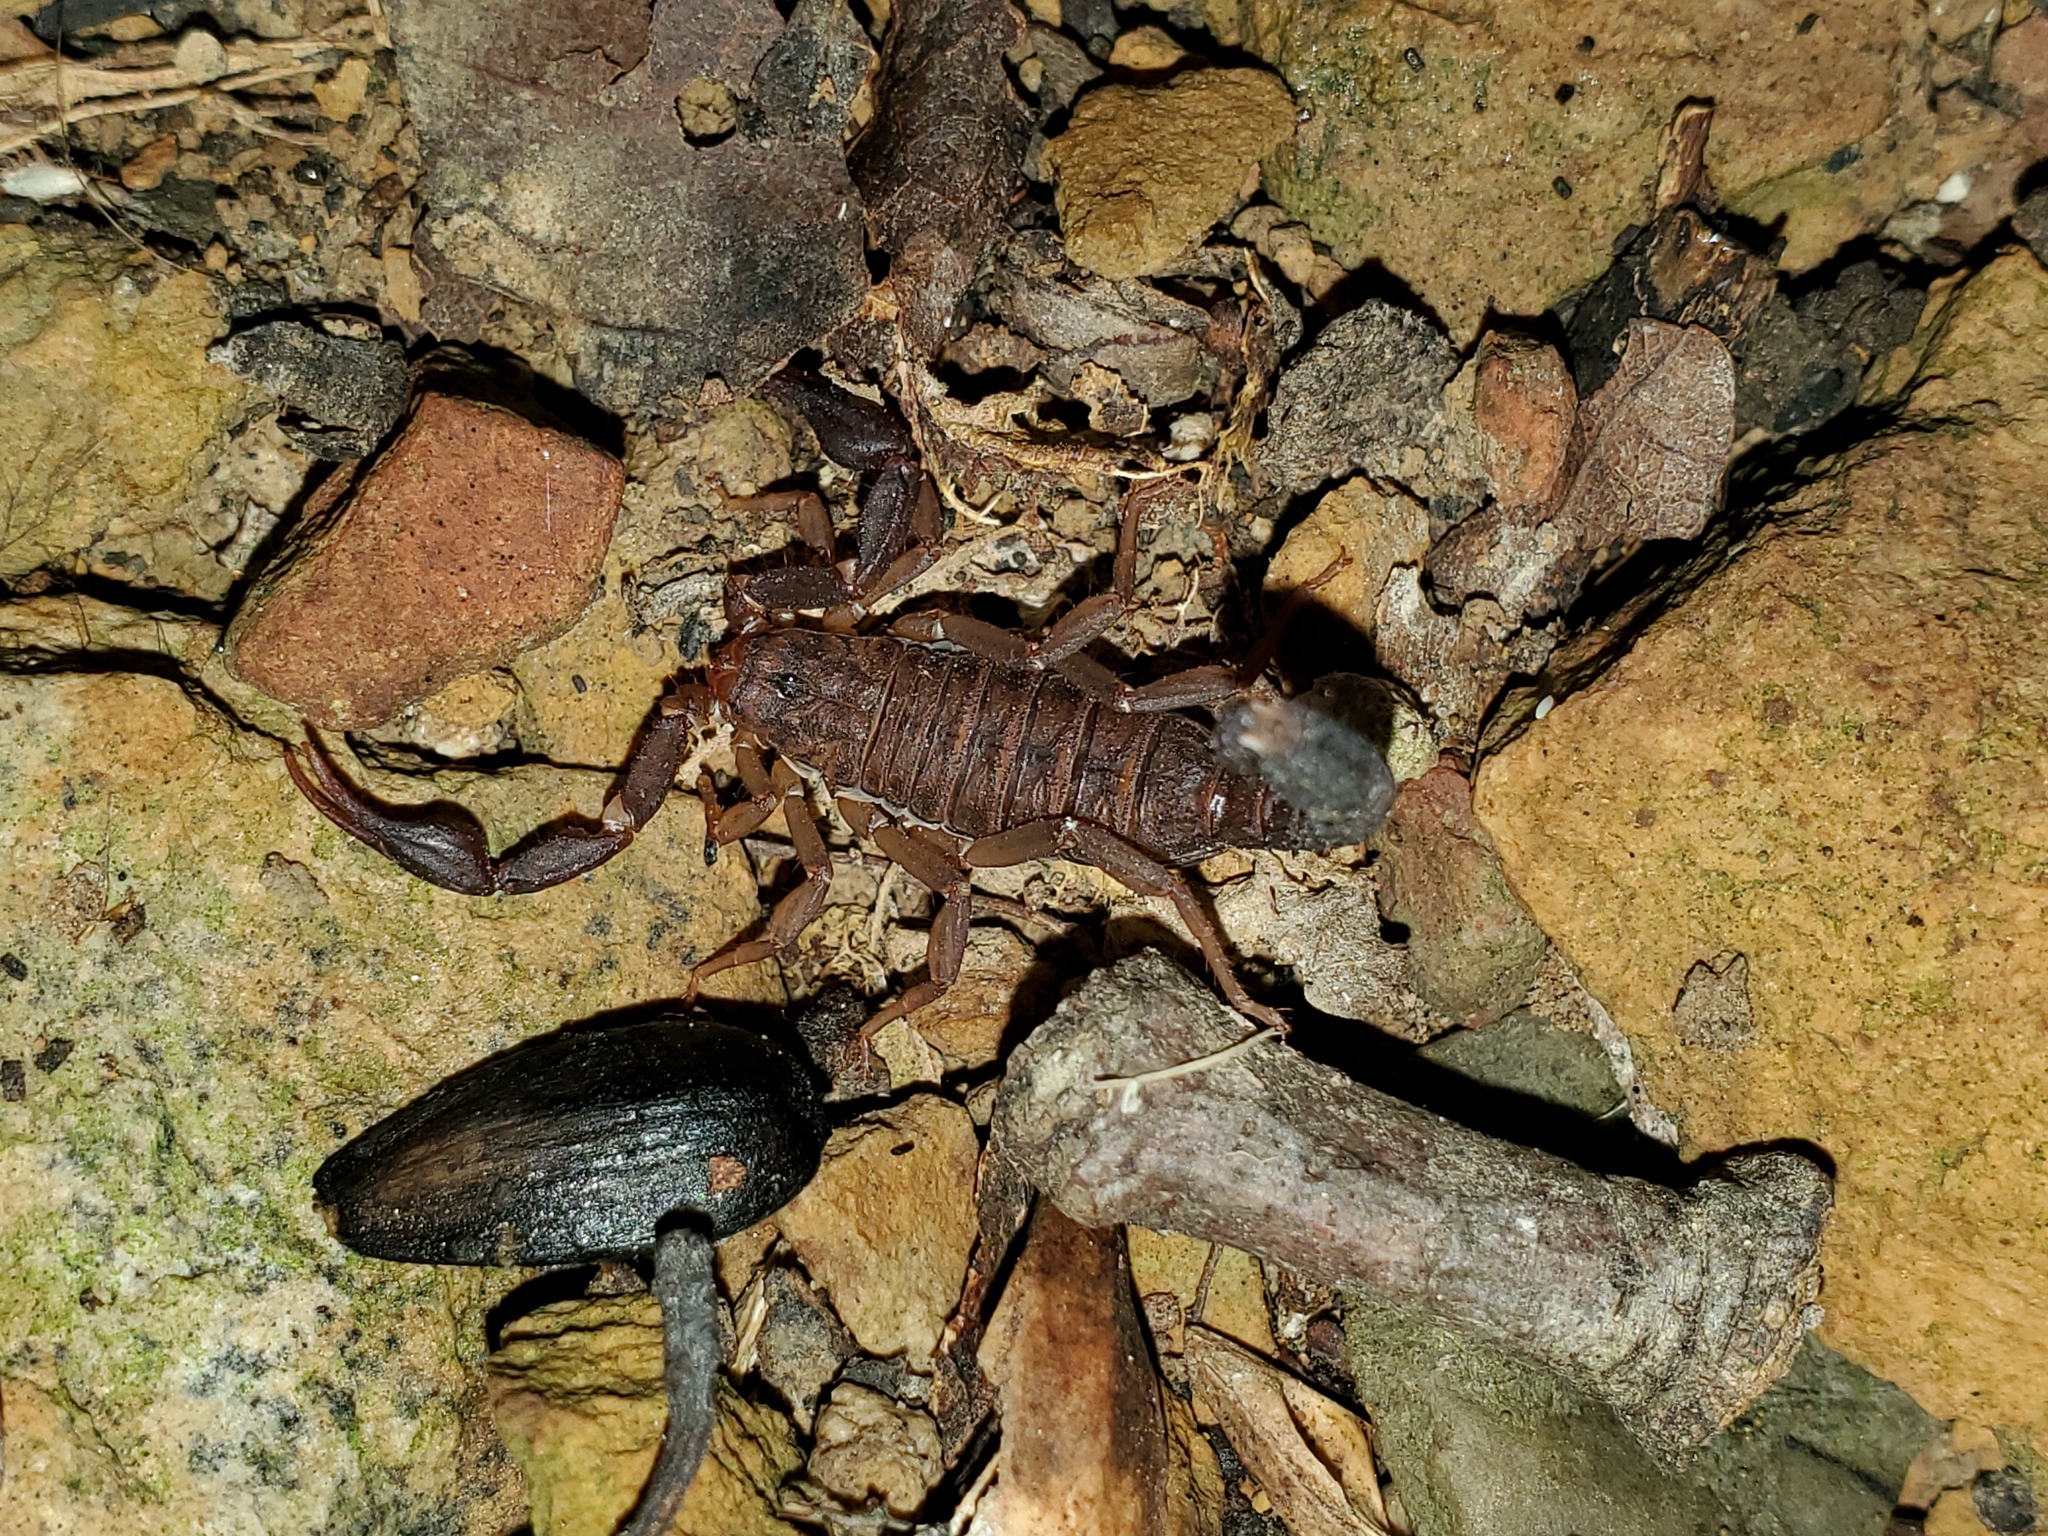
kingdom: Animalia
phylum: Arthropoda
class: Arachnida
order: Scorpiones
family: Vaejovidae
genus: Vaejovis
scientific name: Vaejovis carolinianus
